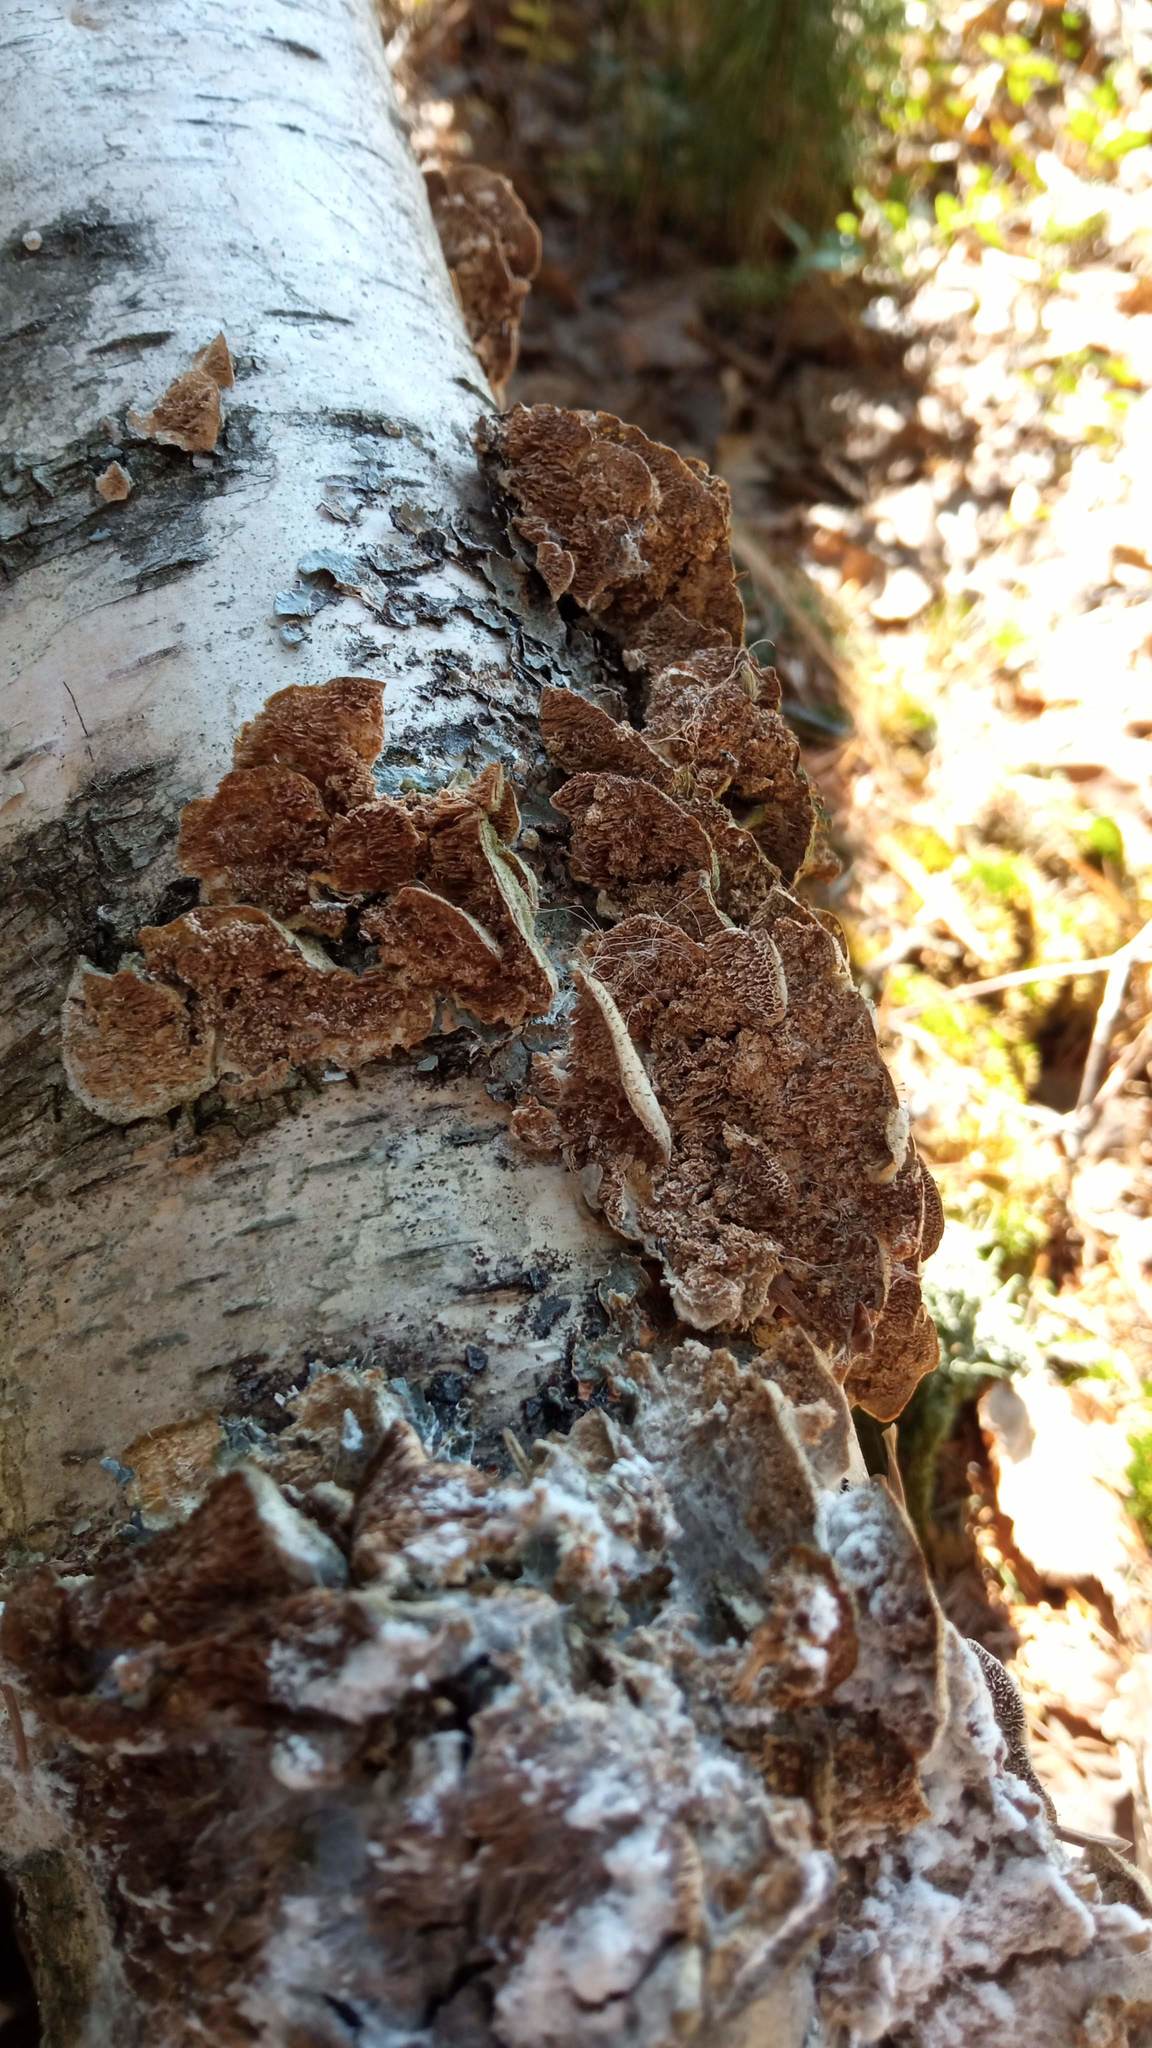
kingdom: Fungi
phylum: Basidiomycota
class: Agaricomycetes
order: Hymenochaetales
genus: Trichaptum
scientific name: Trichaptum biforme
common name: Violet-toothed polypore
